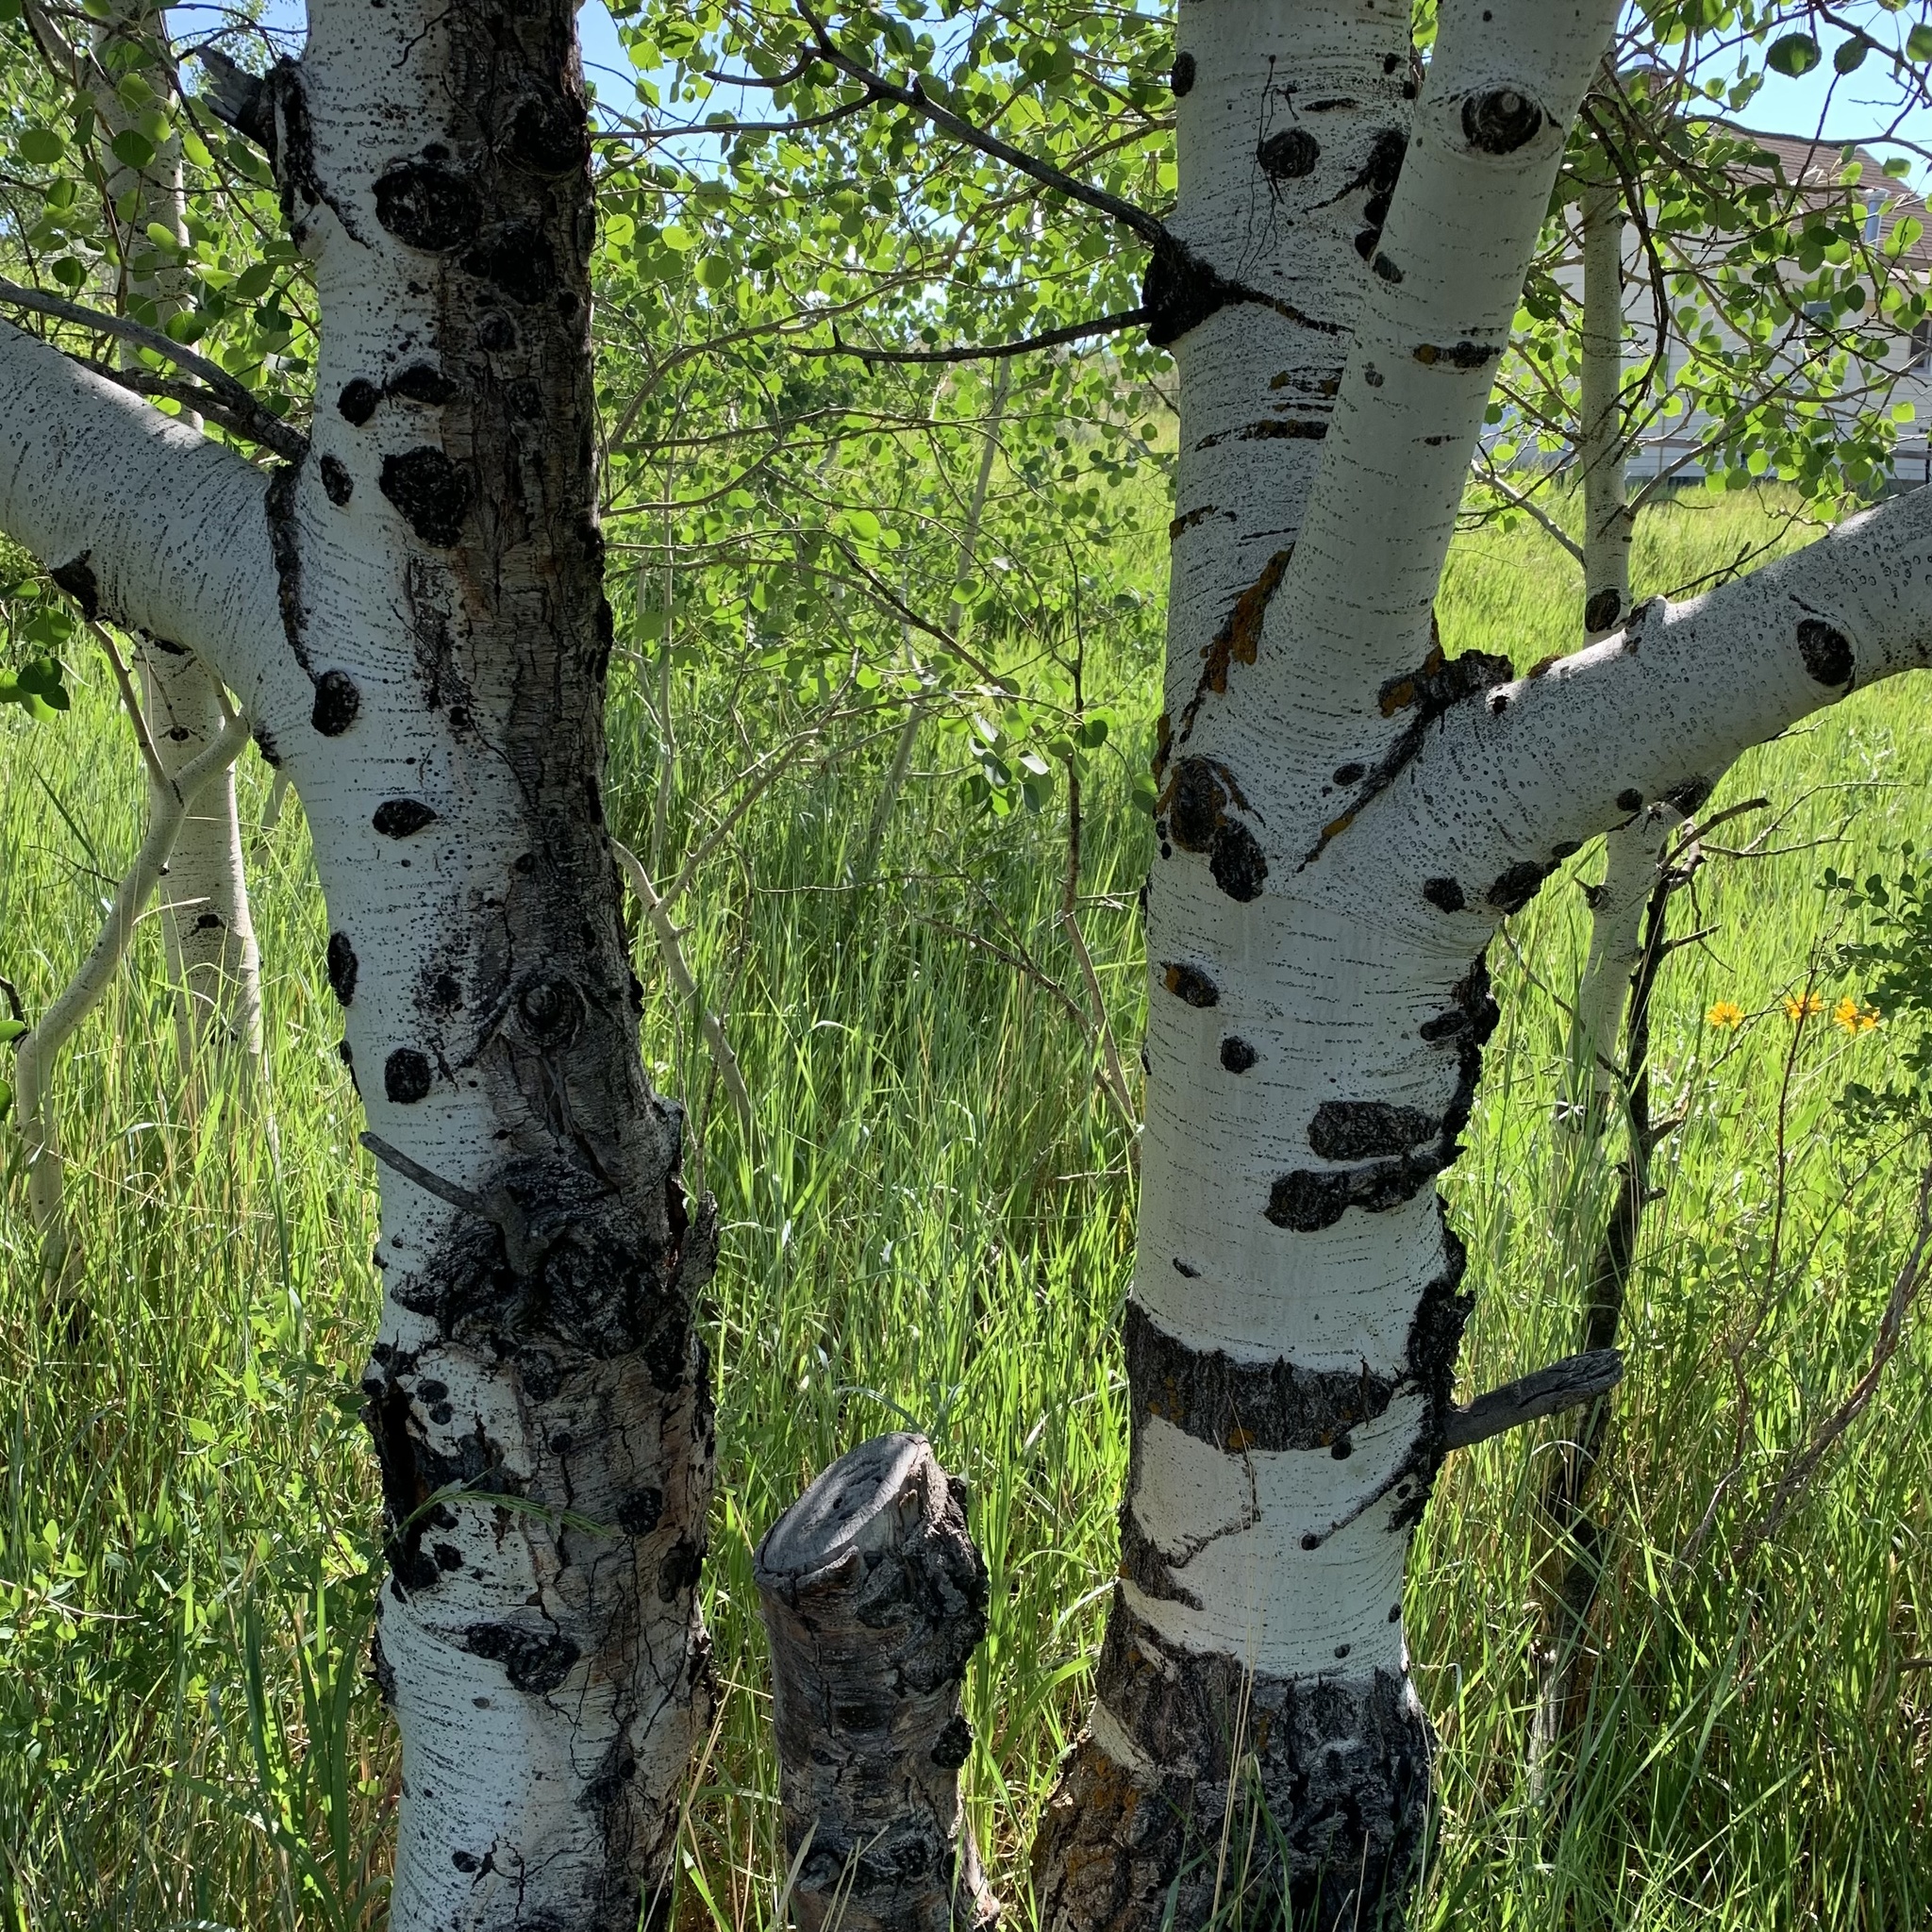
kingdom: Plantae
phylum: Tracheophyta
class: Magnoliopsida
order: Malpighiales
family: Salicaceae
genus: Populus
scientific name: Populus tremuloides
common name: Quaking aspen
